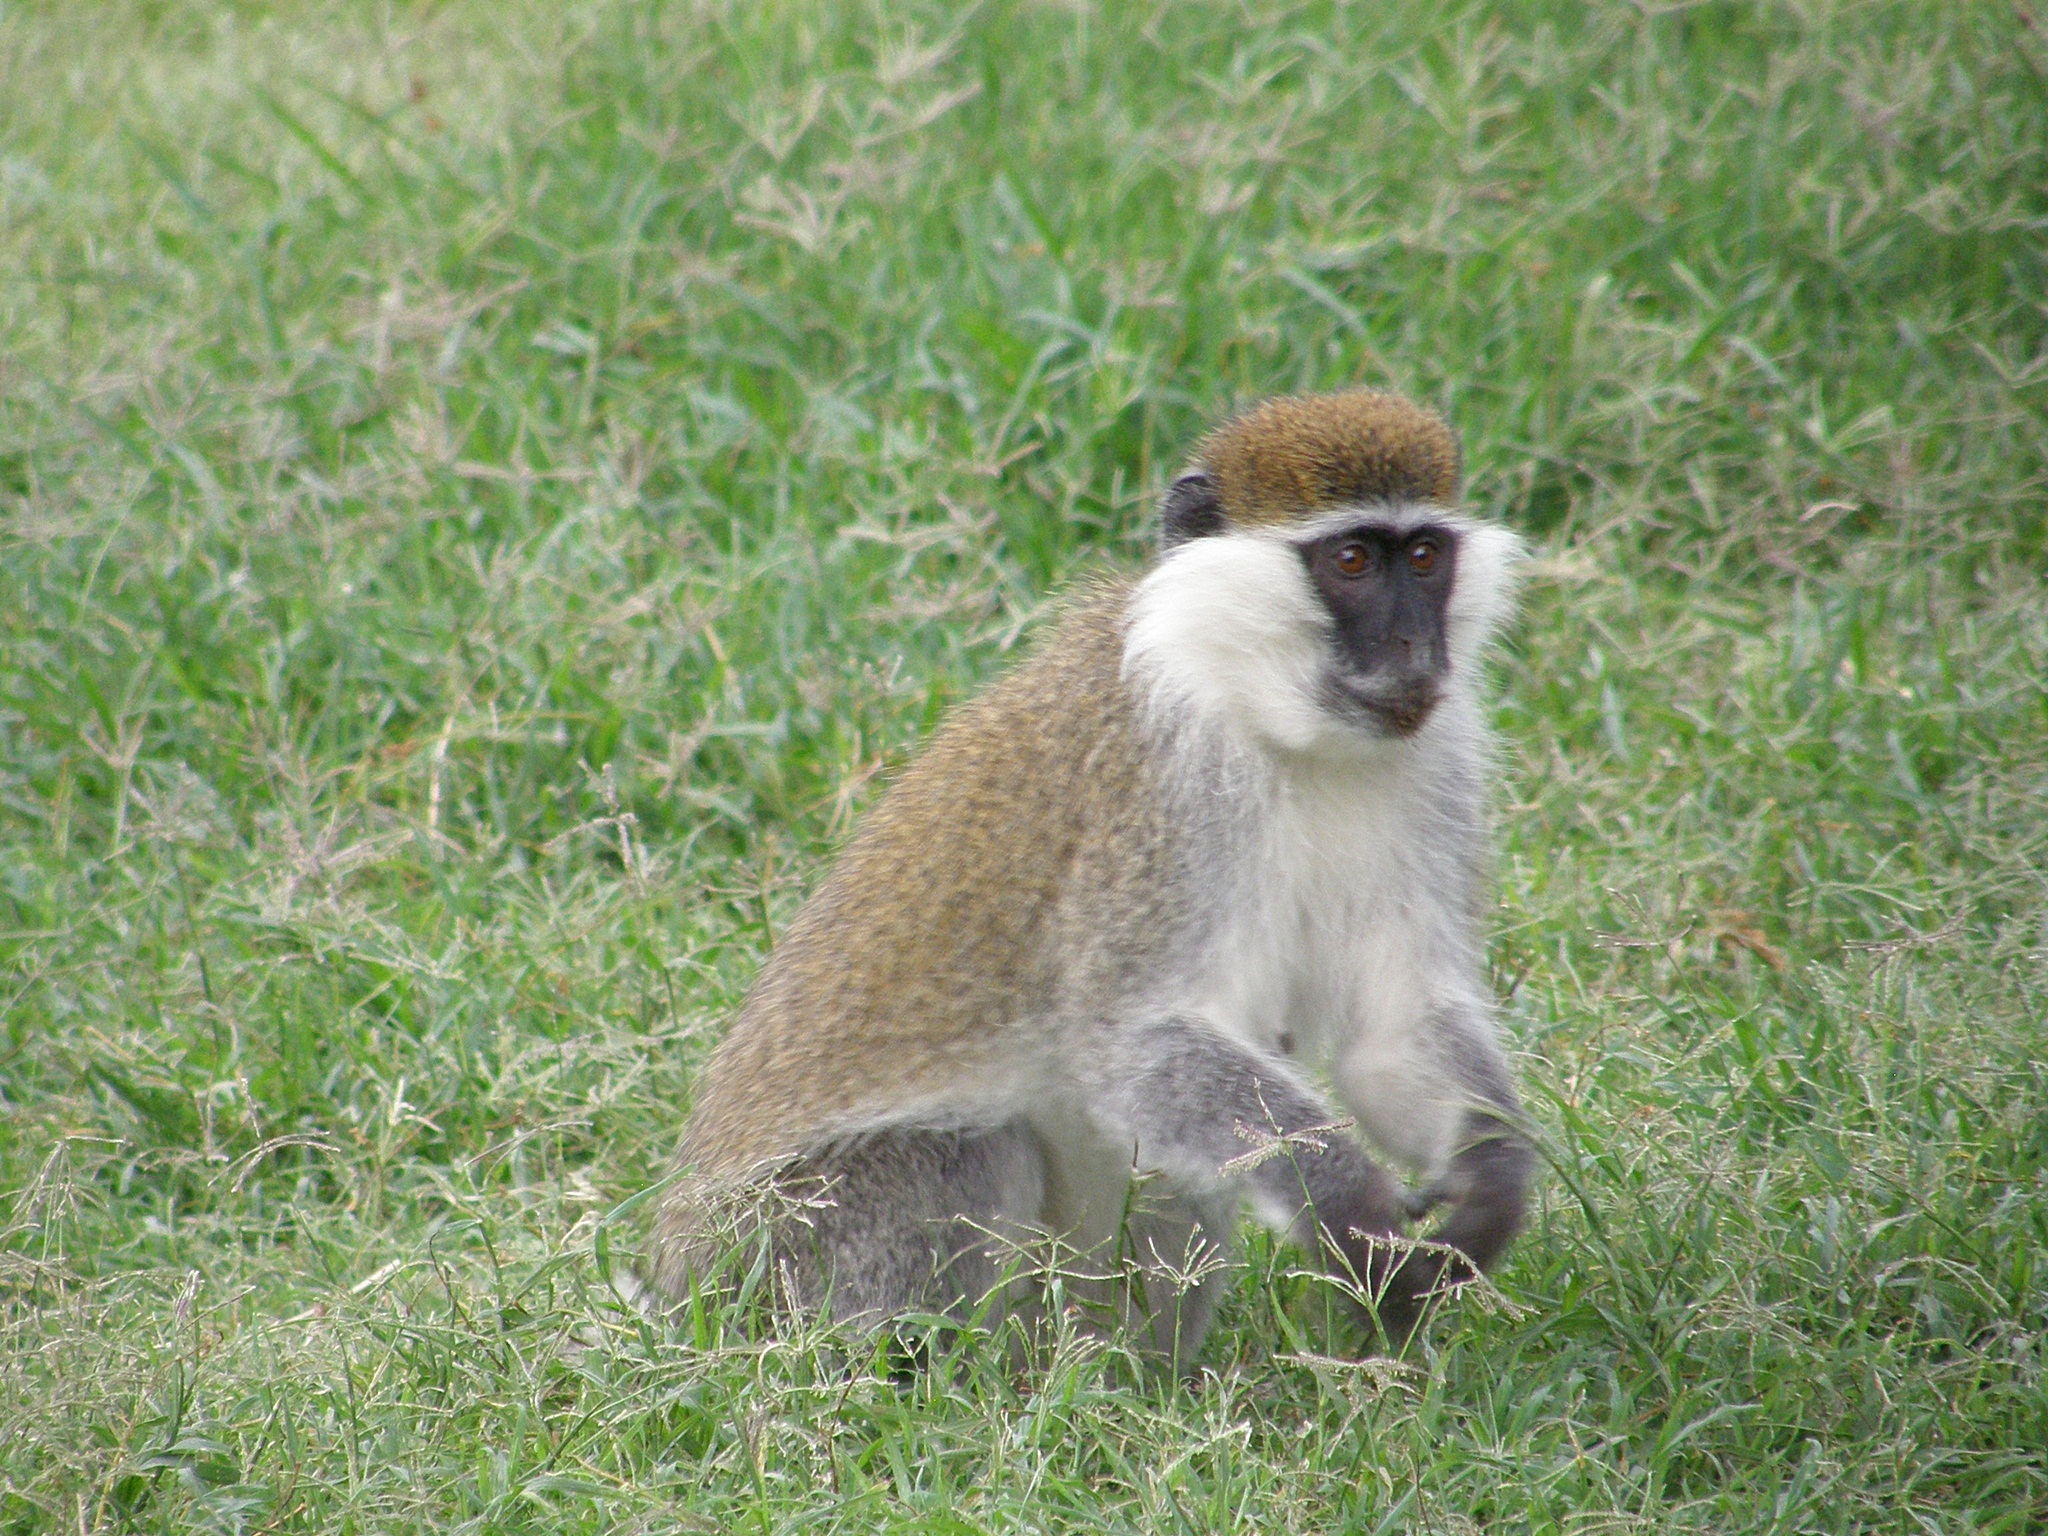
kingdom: Animalia
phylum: Chordata
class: Mammalia
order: Primates
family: Cercopithecidae
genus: Chlorocebus
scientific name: Chlorocebus aethiops
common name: Grivet
